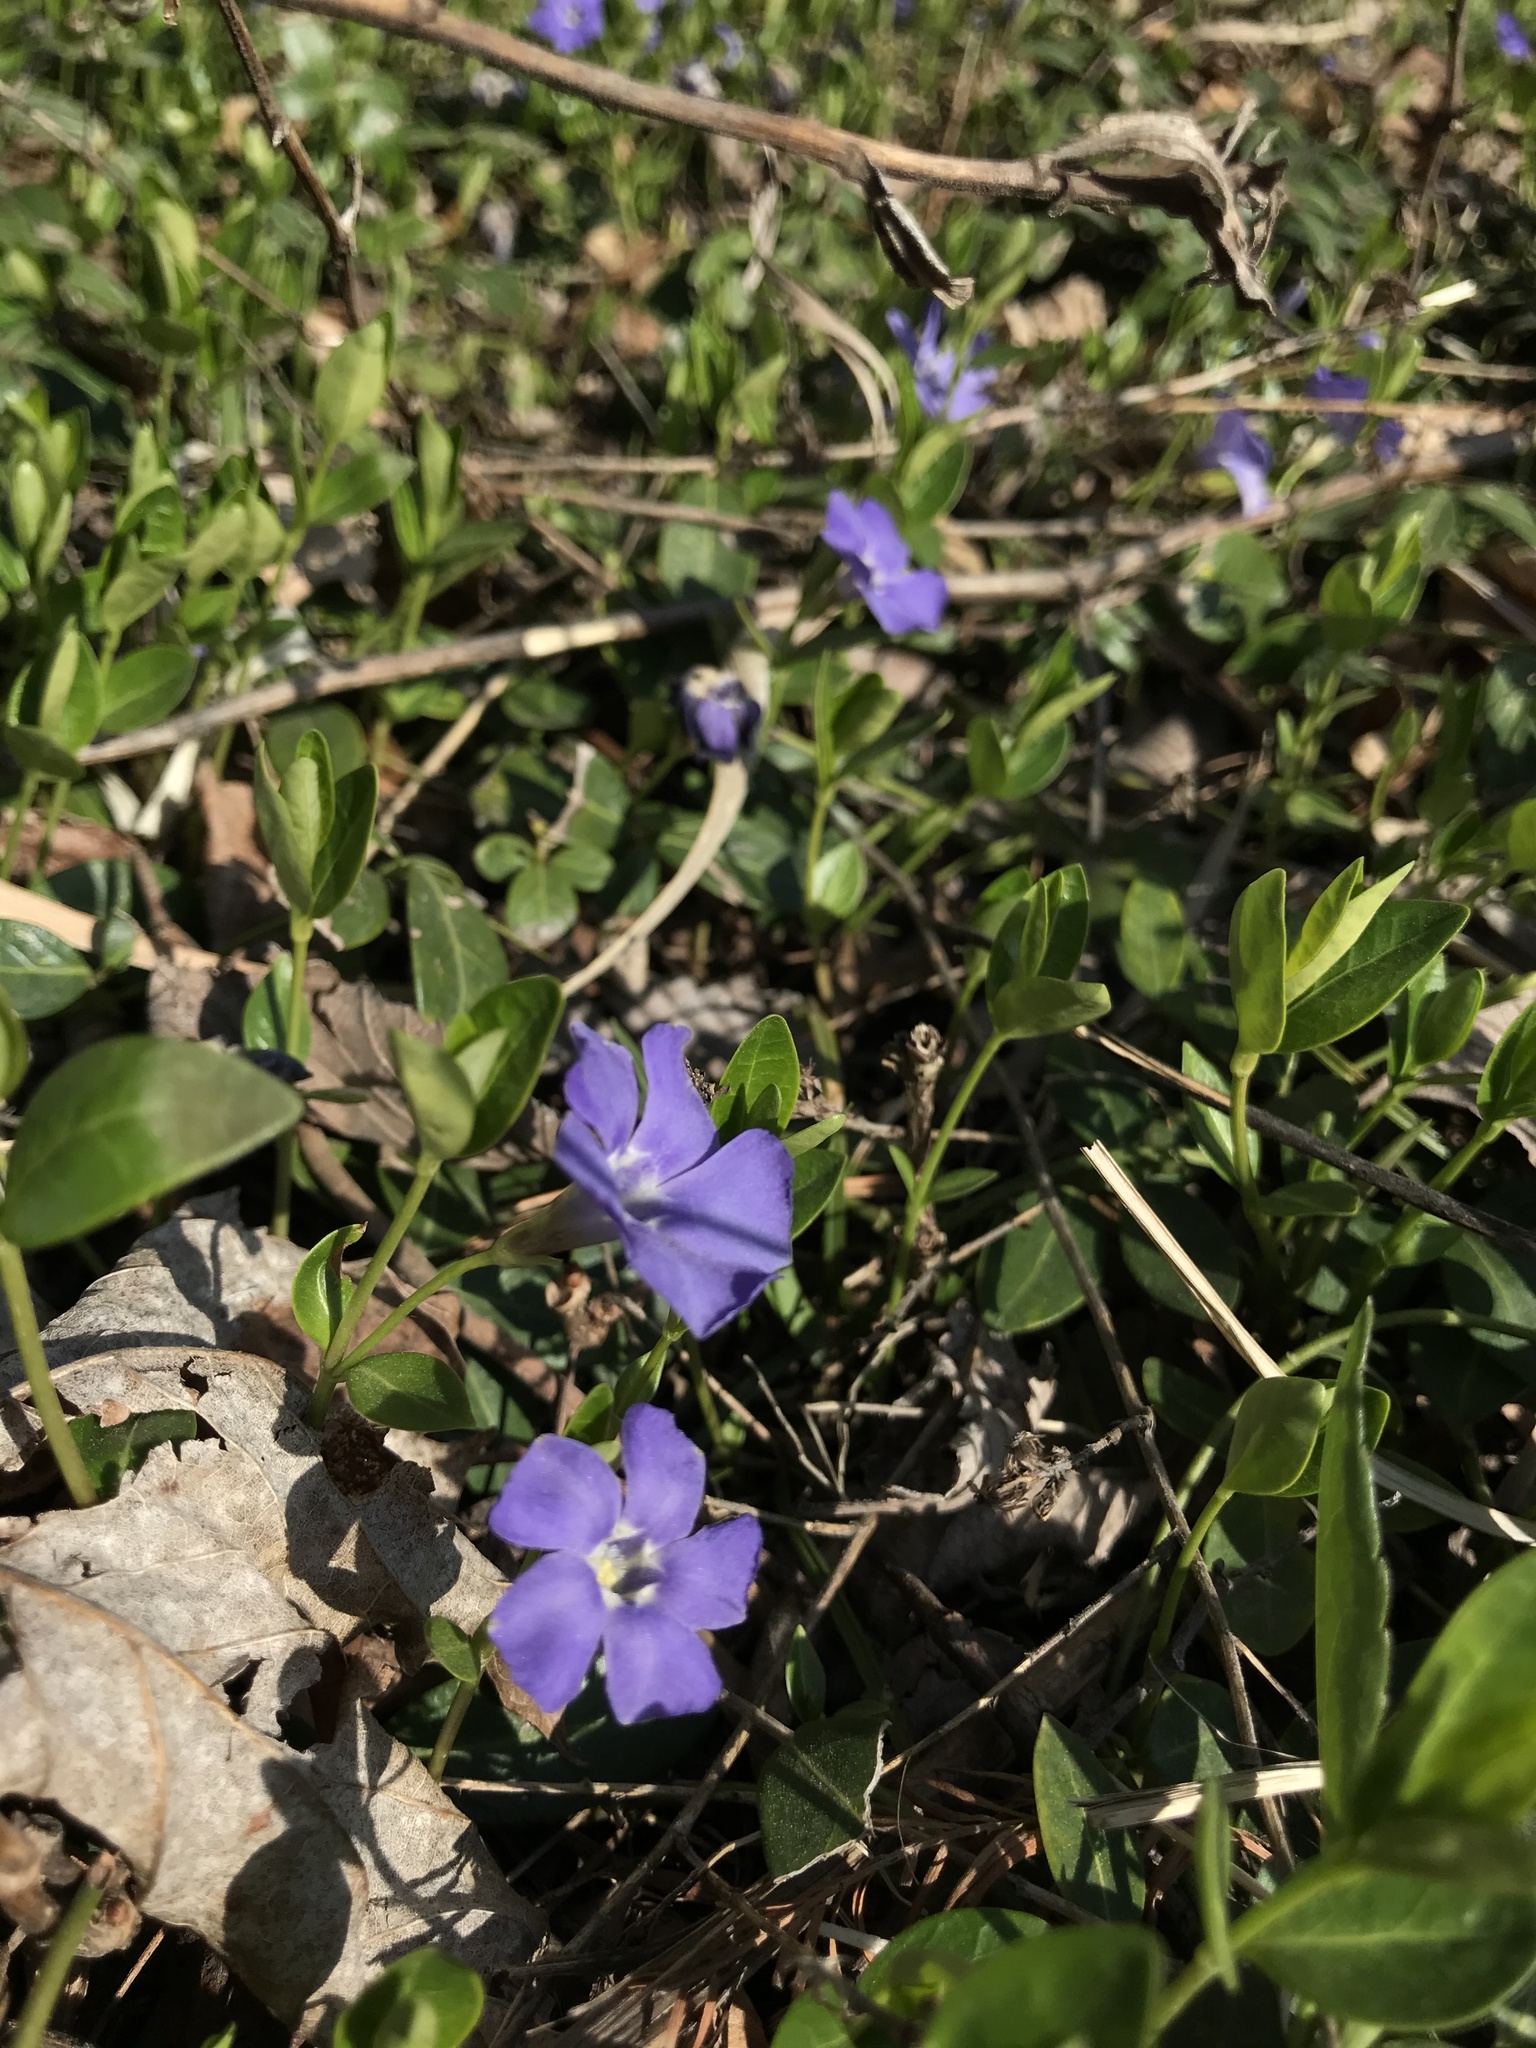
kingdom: Plantae
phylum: Tracheophyta
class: Magnoliopsida
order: Gentianales
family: Apocynaceae
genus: Vinca
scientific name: Vinca minor
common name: Lesser periwinkle
